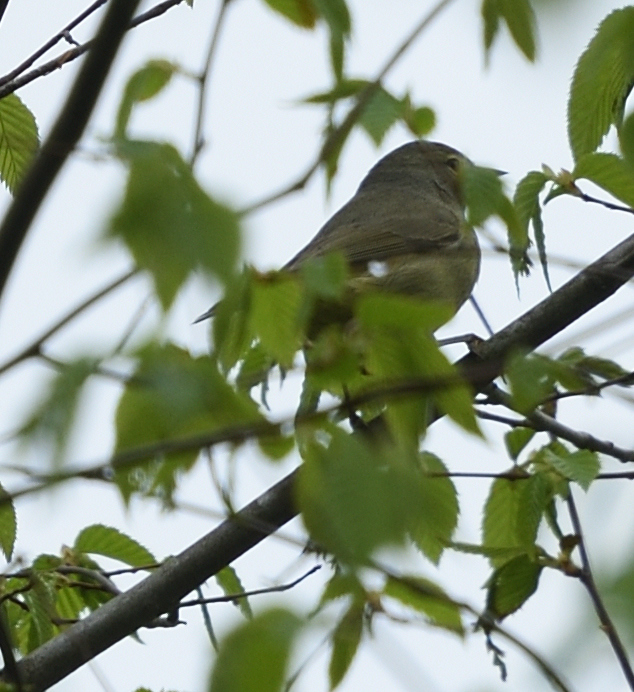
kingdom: Animalia
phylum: Chordata
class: Aves
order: Passeriformes
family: Parulidae
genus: Leiothlypis
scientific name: Leiothlypis celata
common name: Orange-crowned warbler
